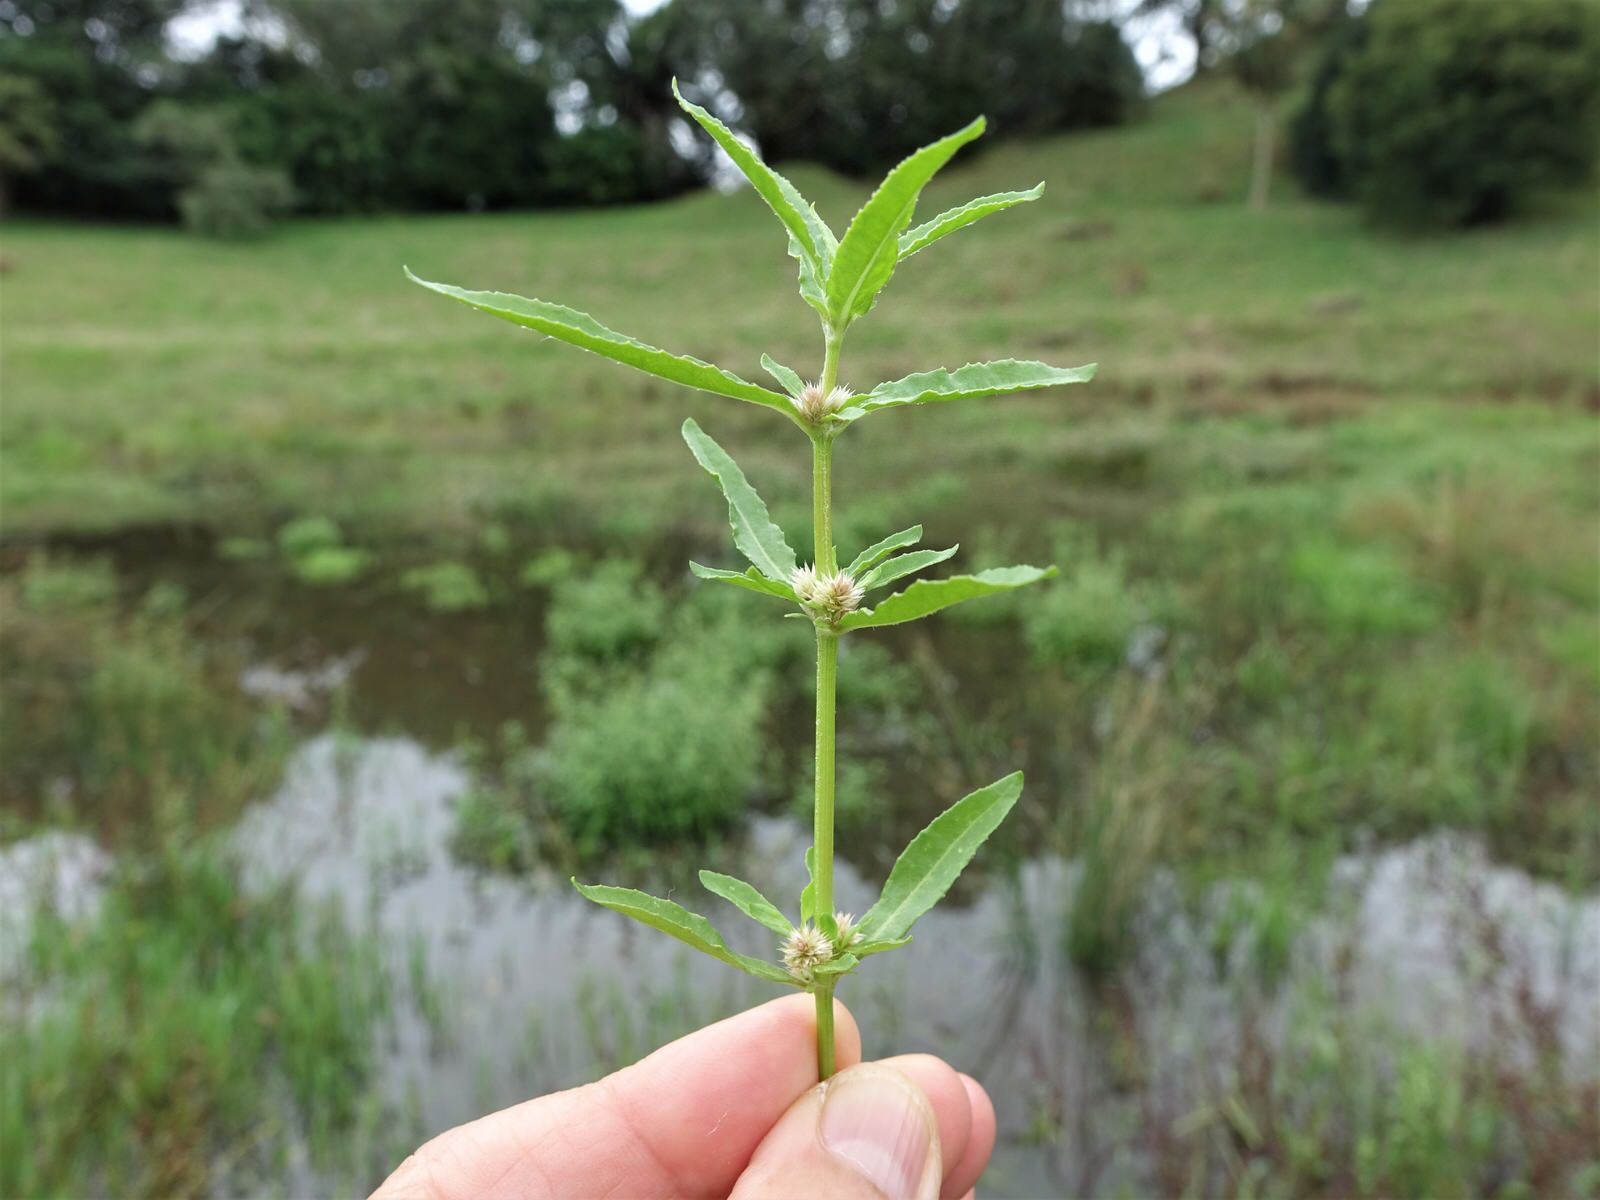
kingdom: Plantae
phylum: Tracheophyta
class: Magnoliopsida
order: Caryophyllales
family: Amaranthaceae
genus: Alternanthera
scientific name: Alternanthera denticulata
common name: Lesser joyweed
